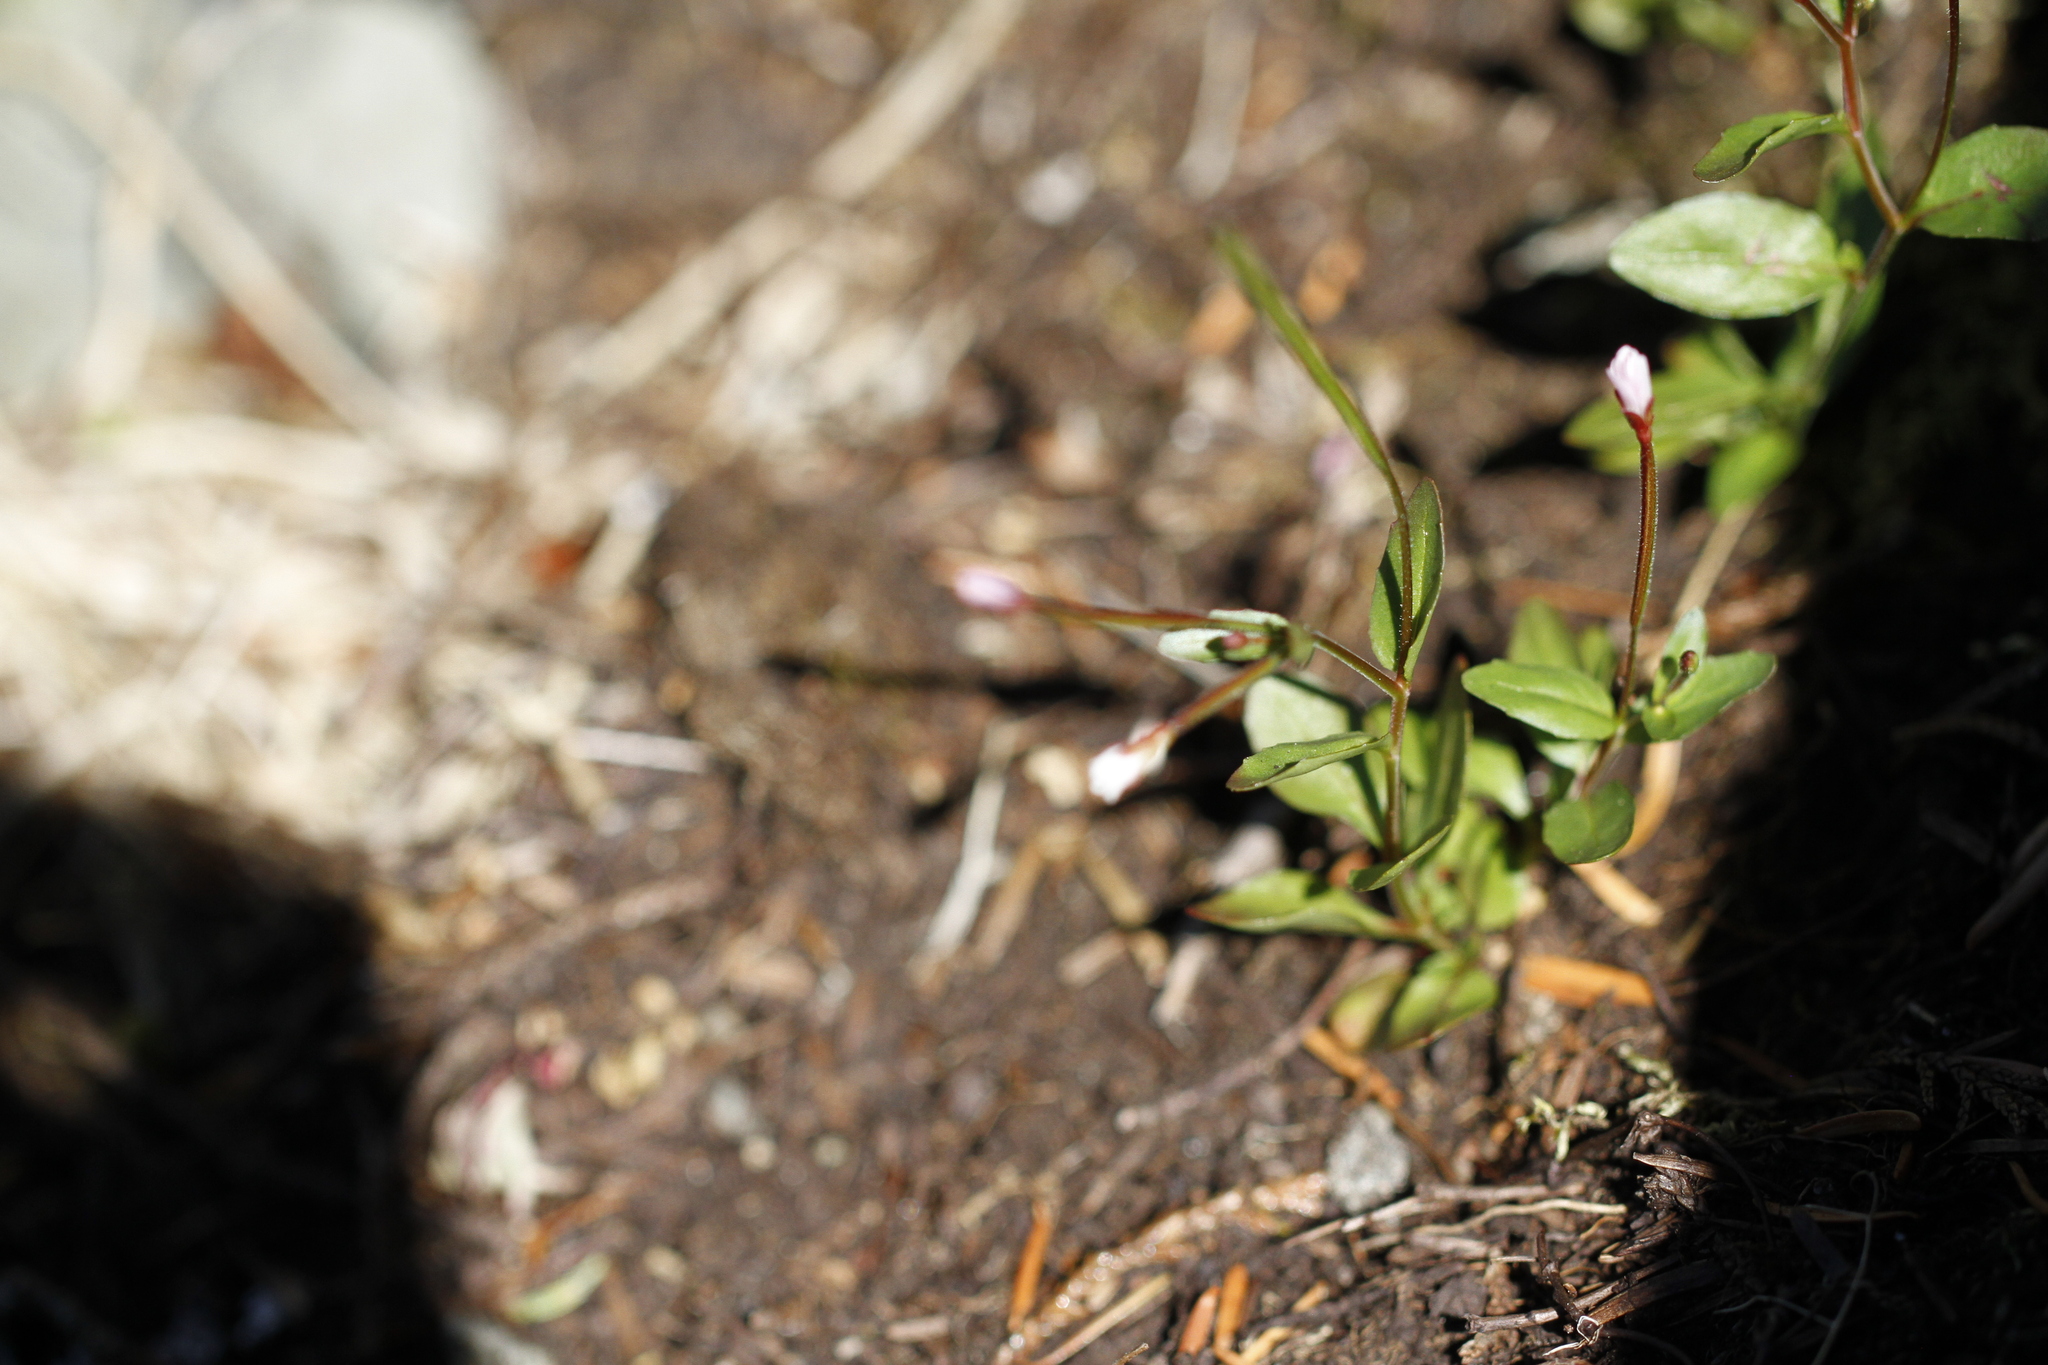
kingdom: Plantae
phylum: Tracheophyta
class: Magnoliopsida
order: Myrtales
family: Onagraceae
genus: Epilobium
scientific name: Epilobium anagallidifolium
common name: Alpine willowherb
